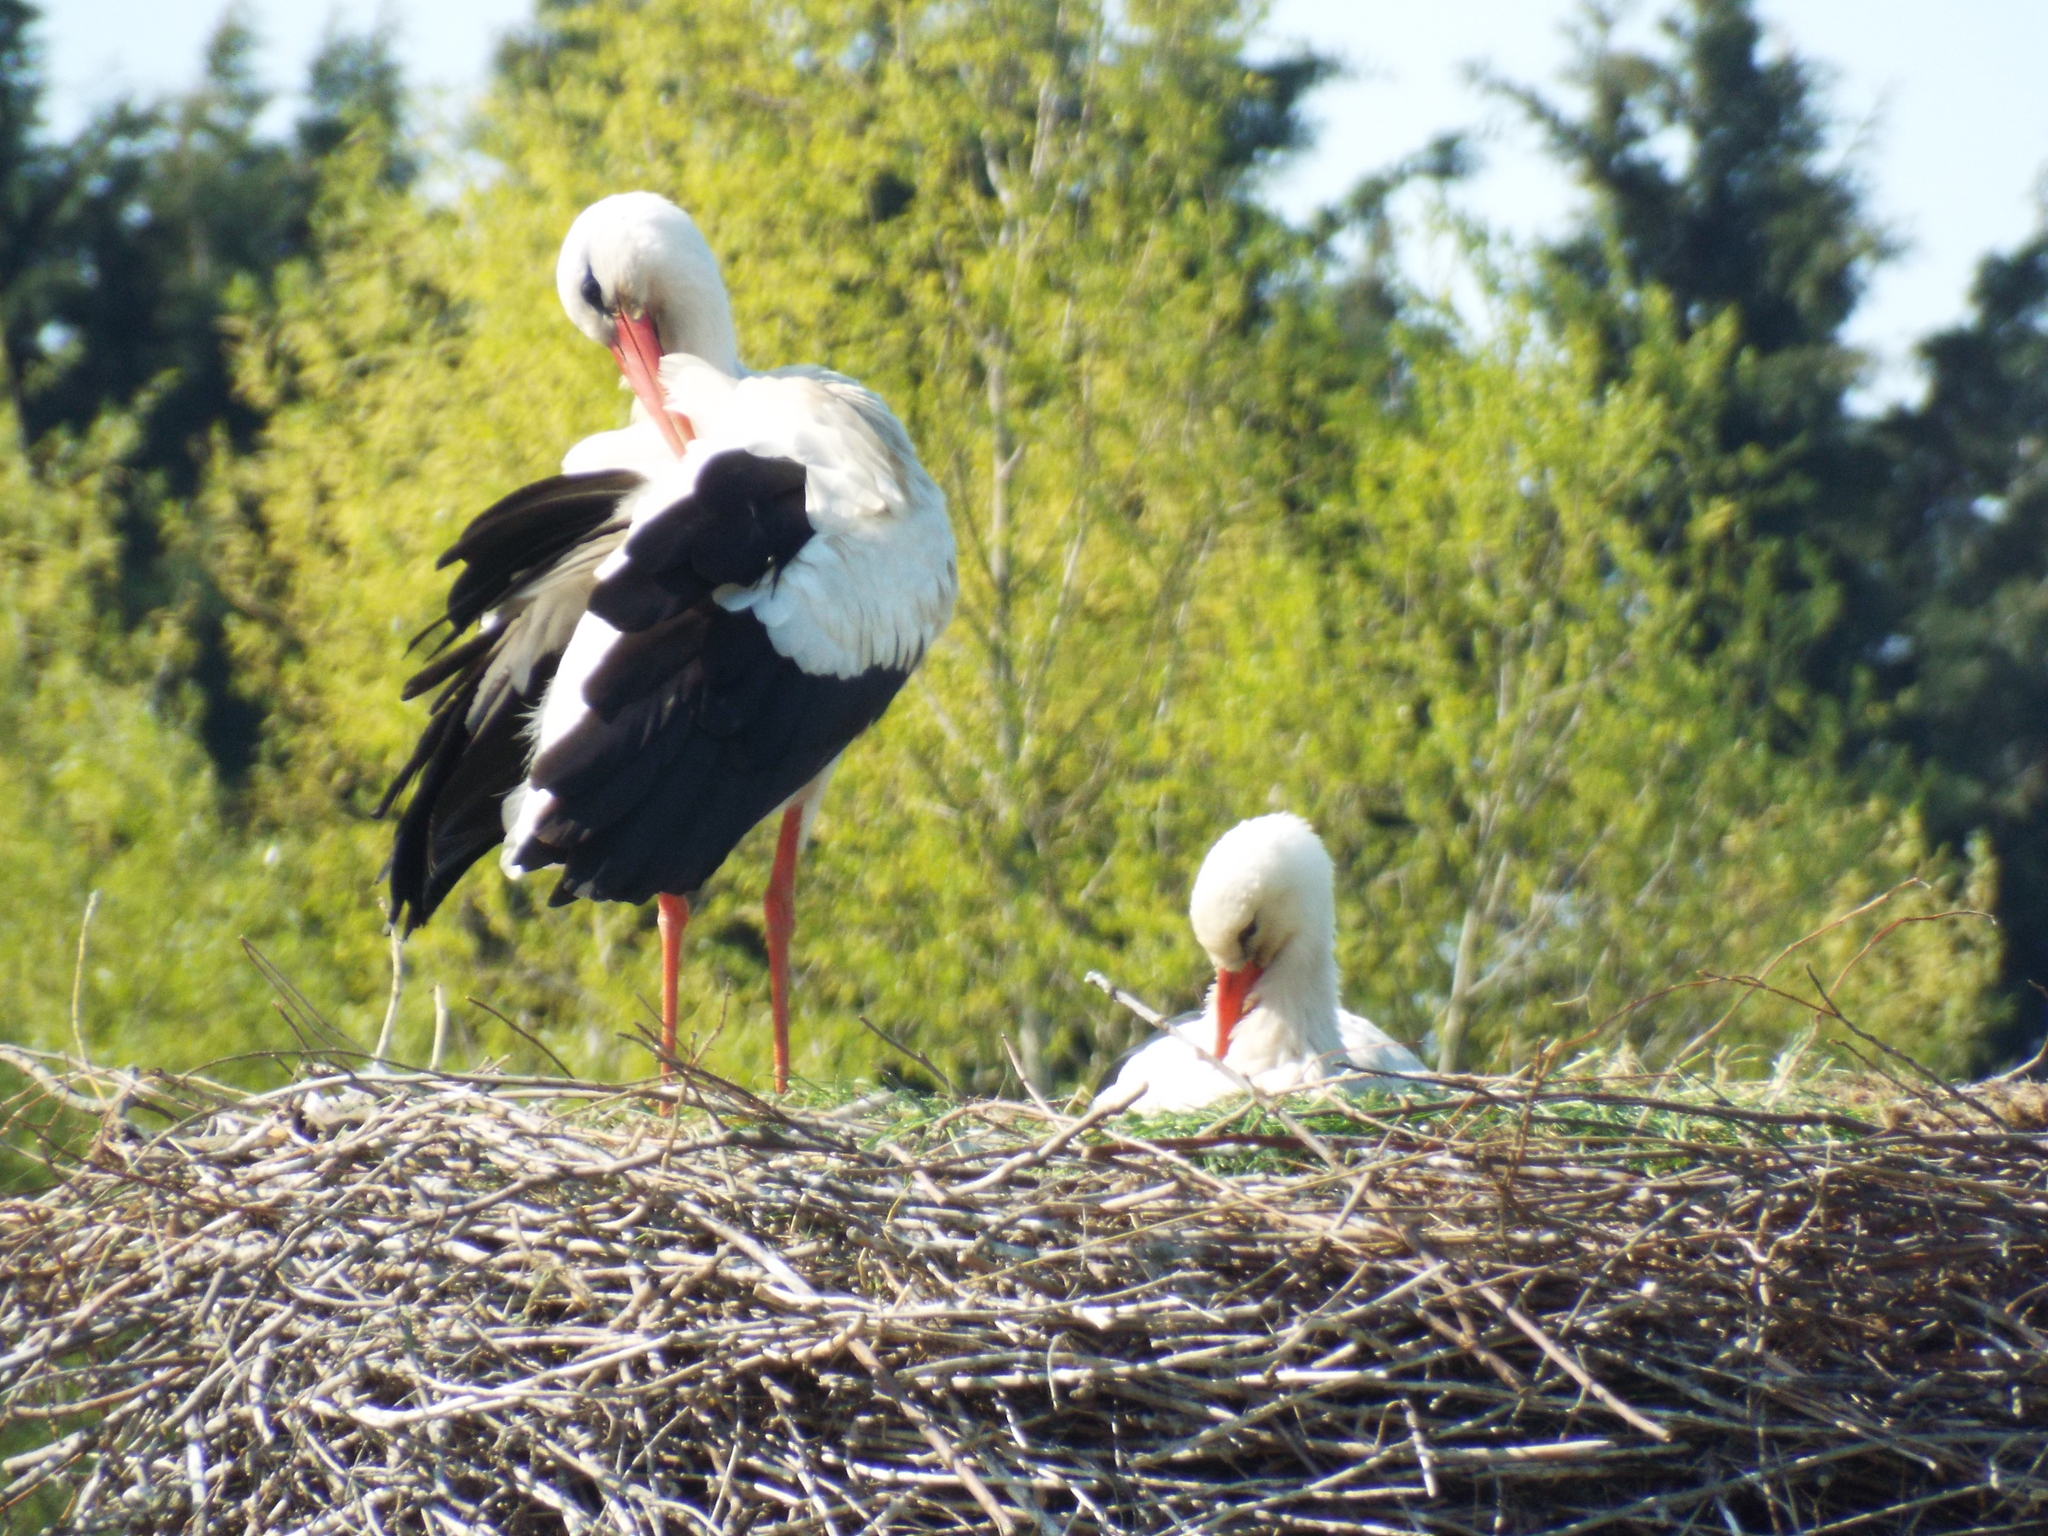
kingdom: Animalia
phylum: Chordata
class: Aves
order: Ciconiiformes
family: Ciconiidae
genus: Ciconia
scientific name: Ciconia ciconia
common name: White stork
